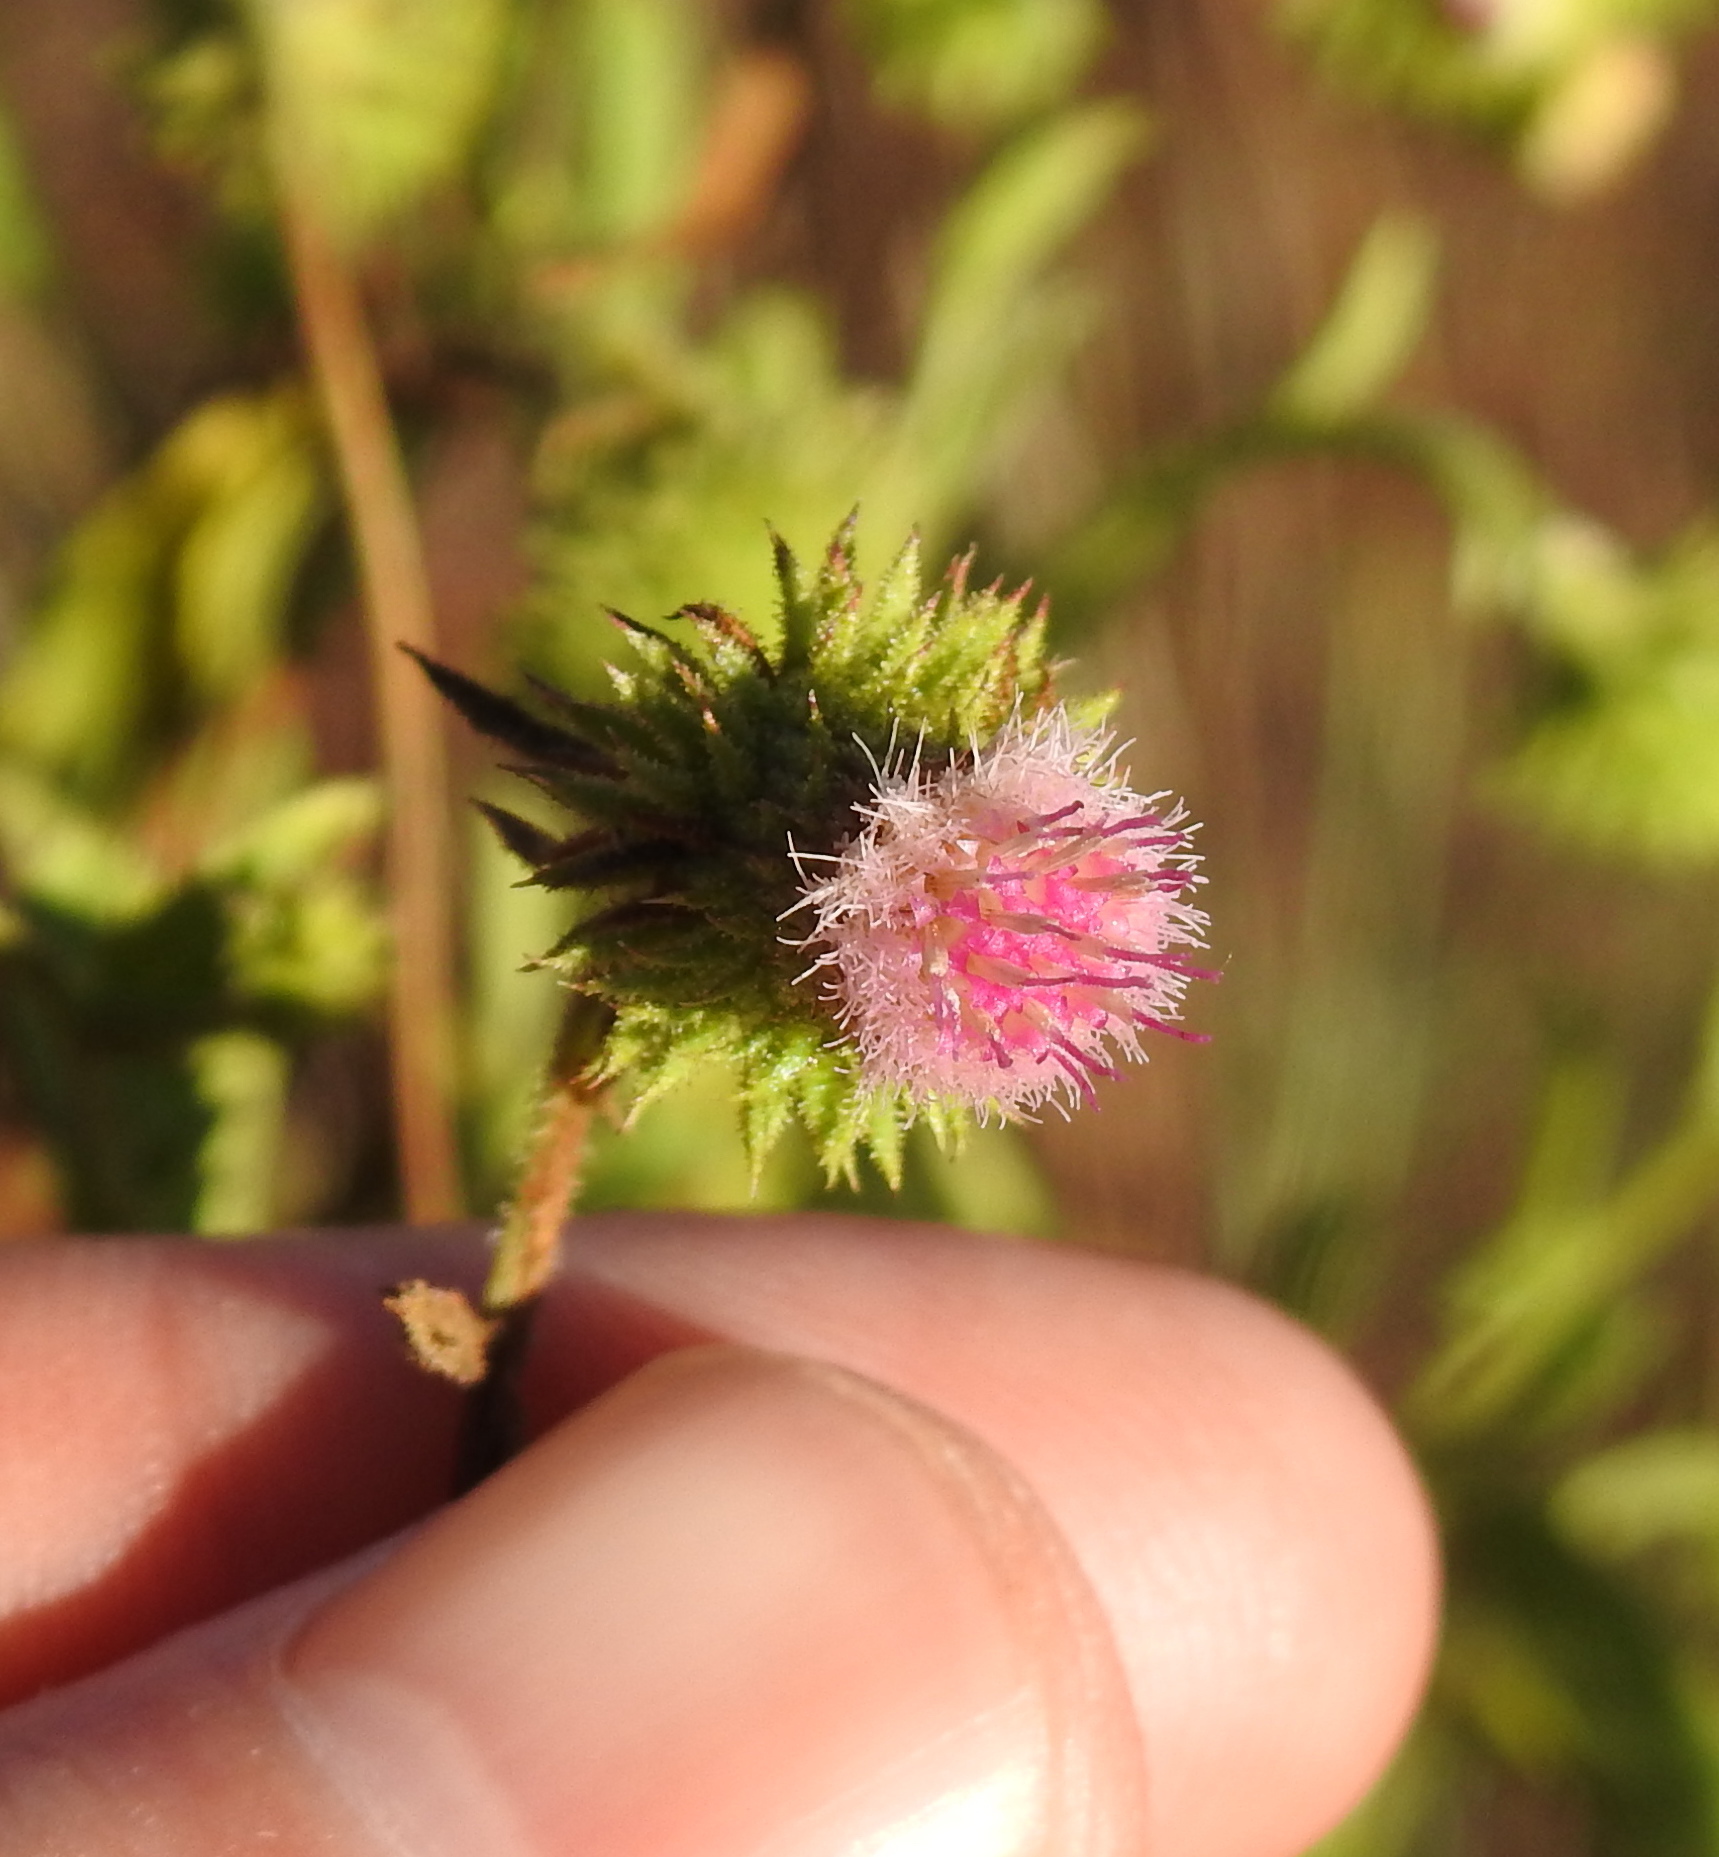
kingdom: Plantae
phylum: Tracheophyta
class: Magnoliopsida
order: Asterales
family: Asteraceae
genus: Laggera
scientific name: Laggera crispata
